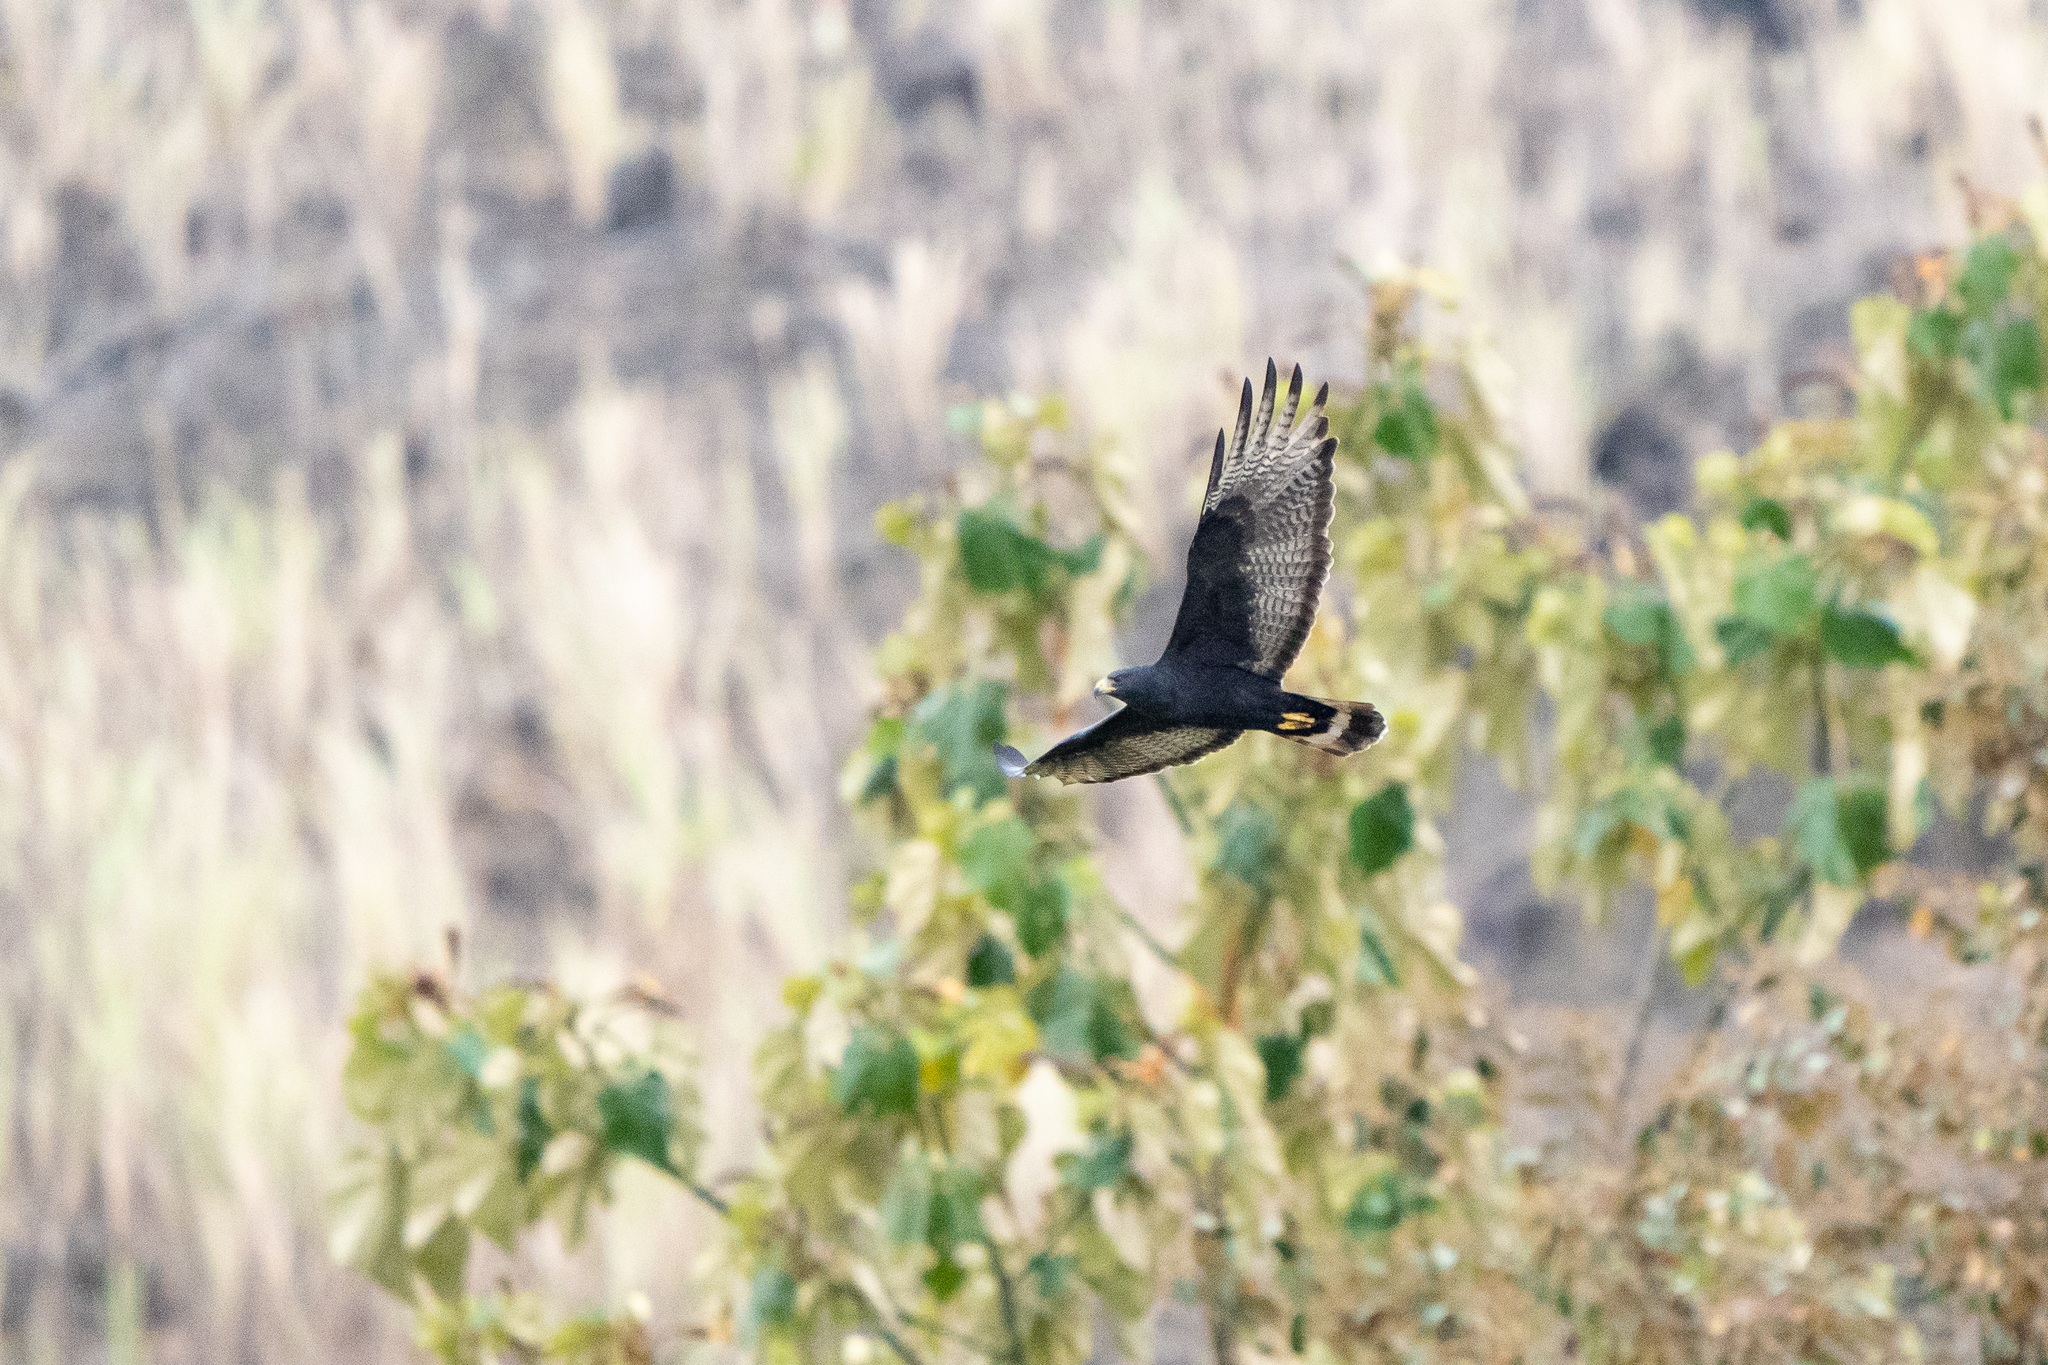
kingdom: Animalia
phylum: Chordata
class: Aves
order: Accipitriformes
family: Accipitridae
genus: Buteo
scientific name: Buteo albonotatus
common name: Zone-tailed hawk
